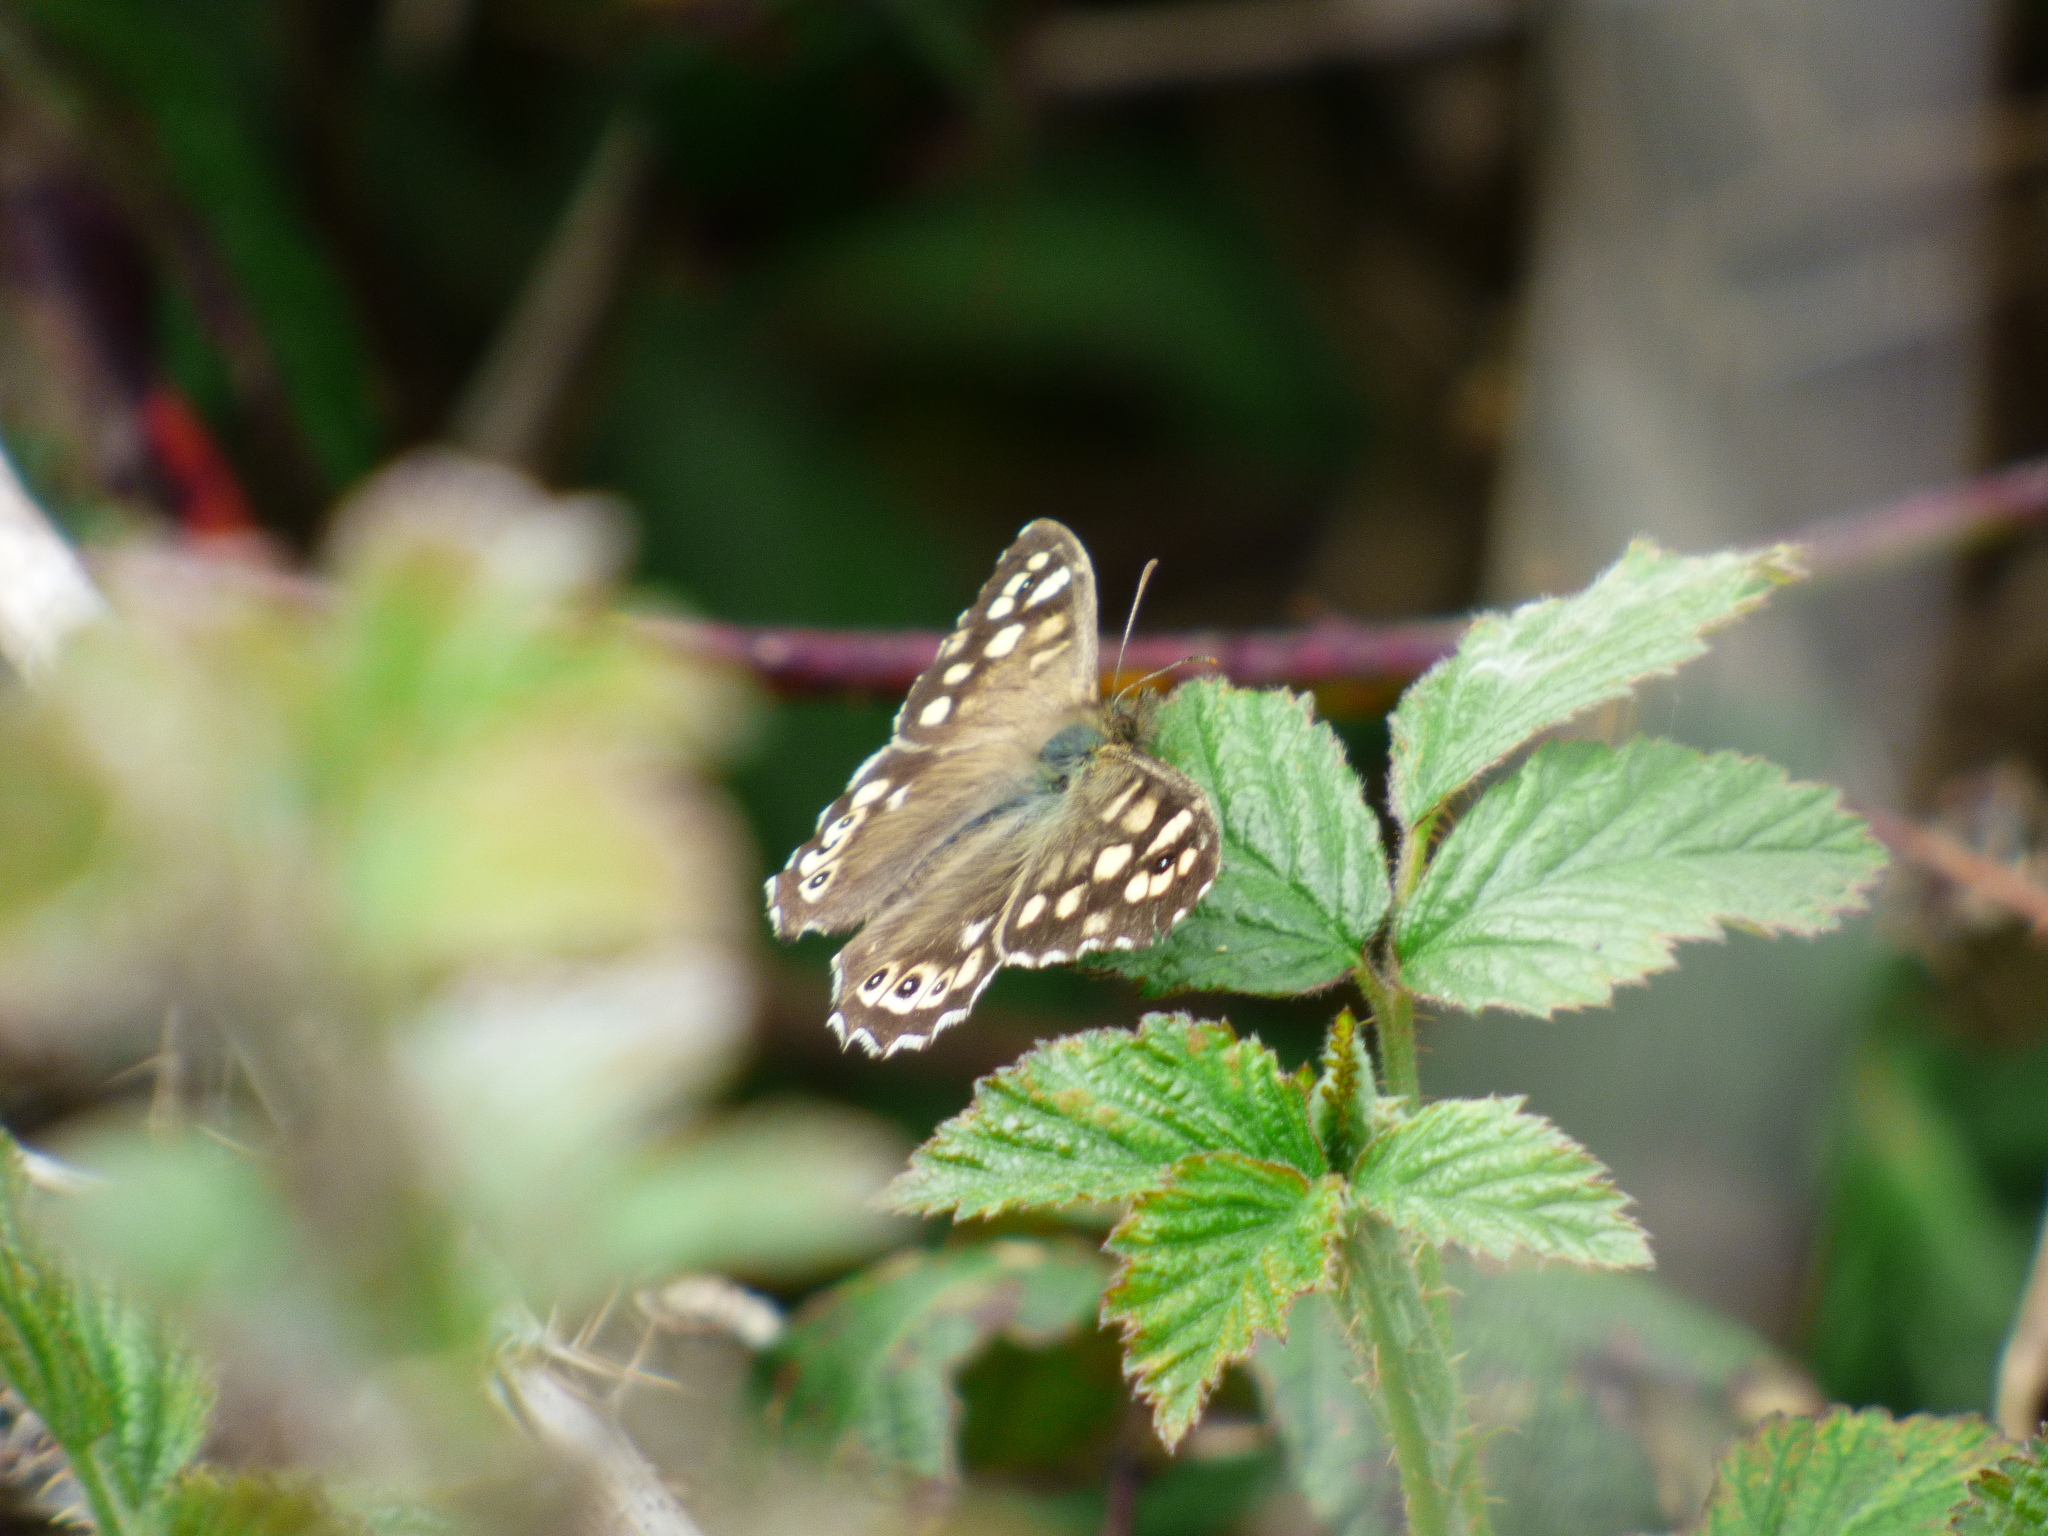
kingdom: Animalia
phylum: Arthropoda
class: Insecta
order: Lepidoptera
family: Nymphalidae
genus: Pararge
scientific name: Pararge aegeria
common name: Speckled wood
